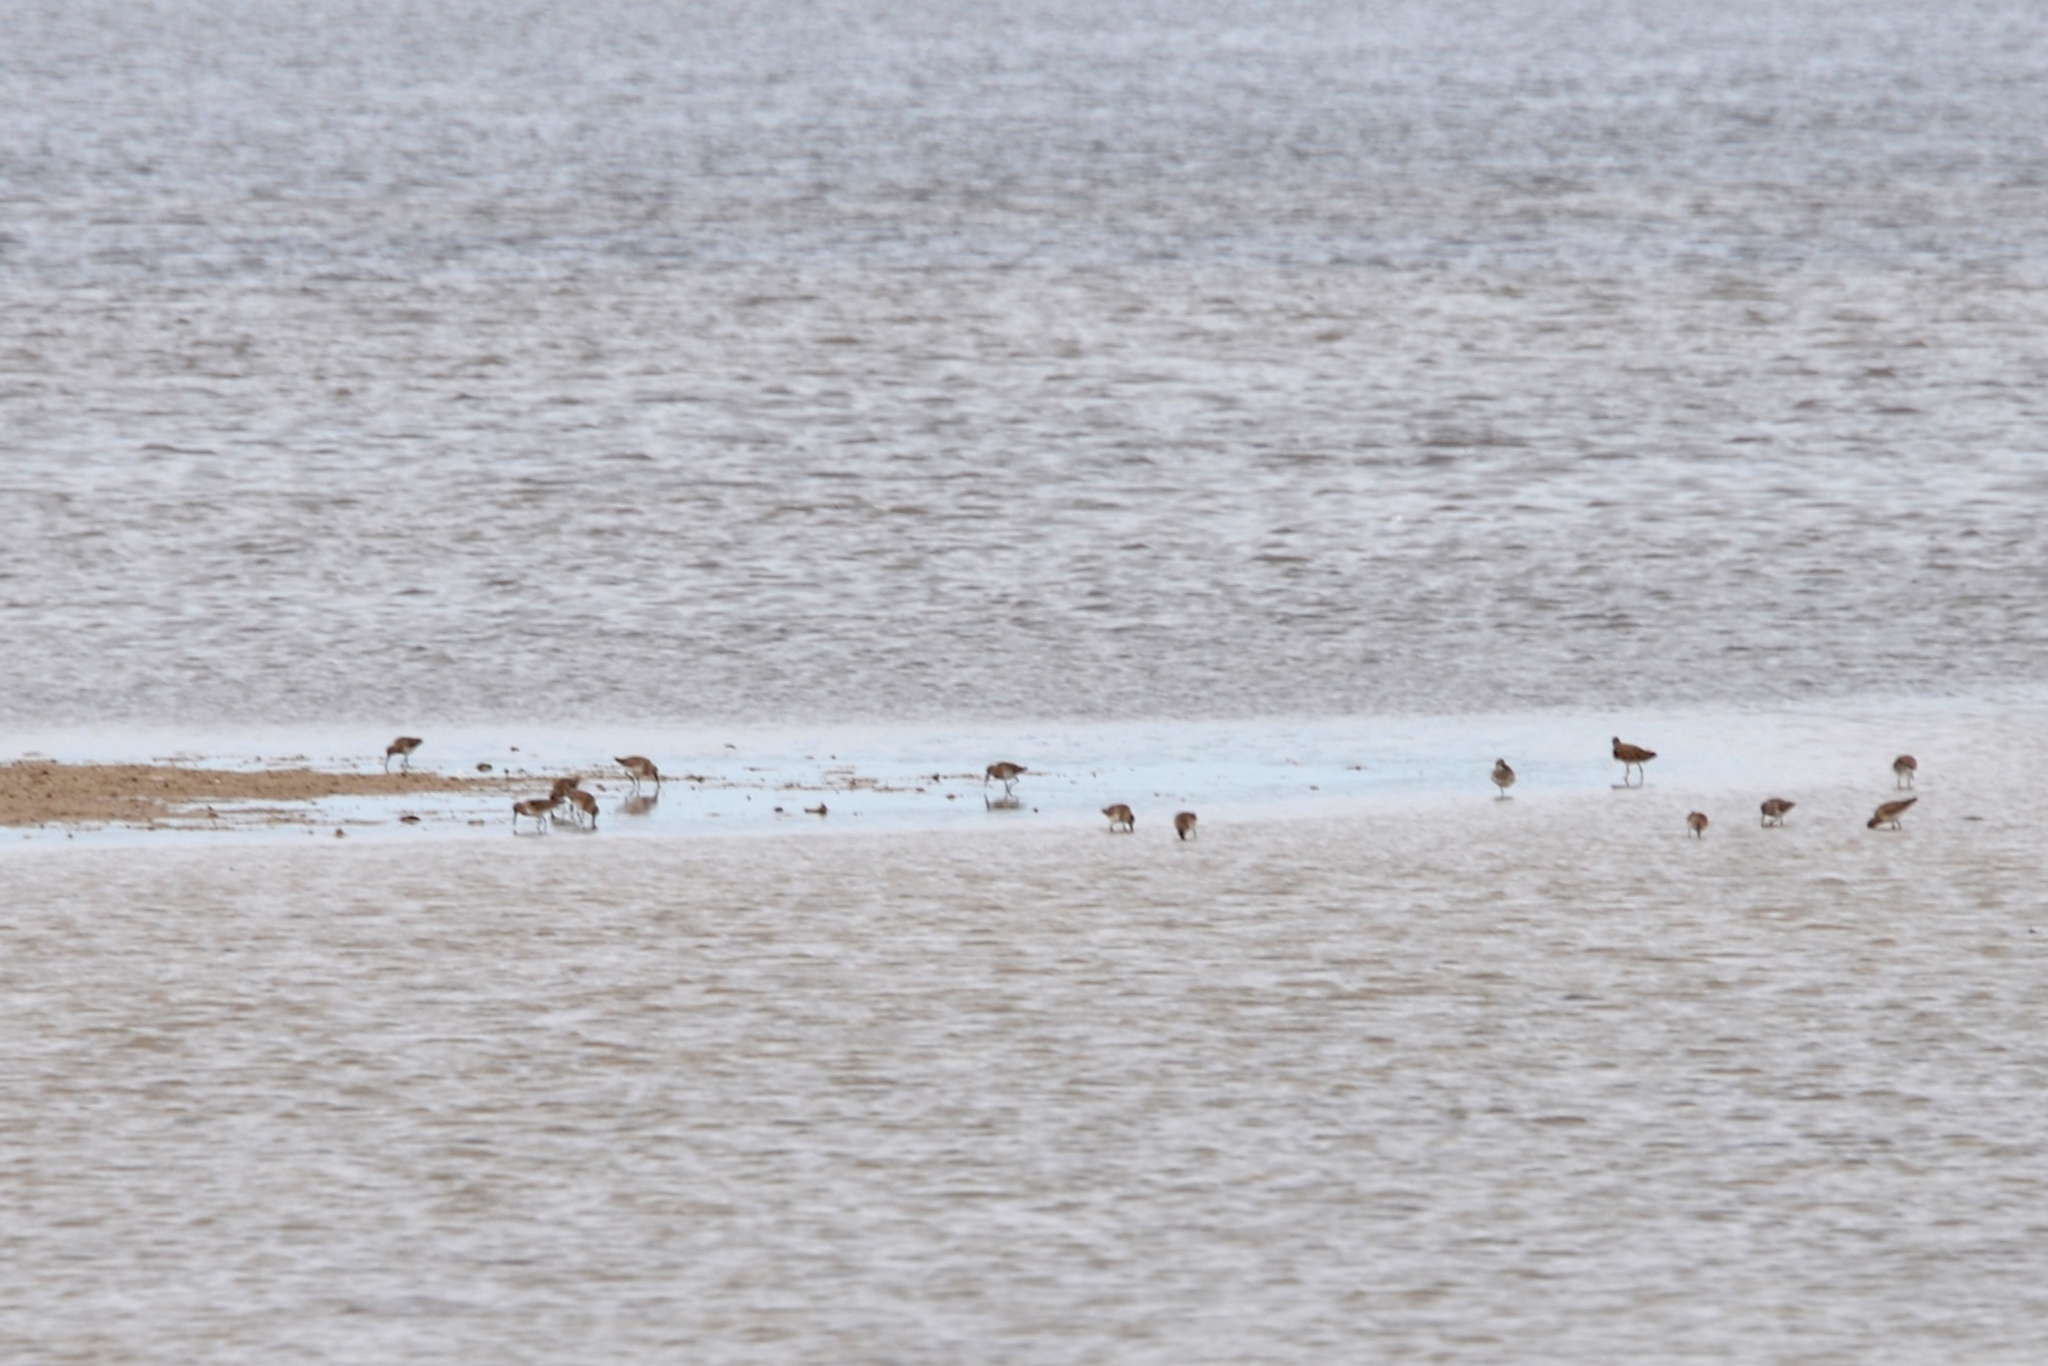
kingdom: Animalia
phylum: Chordata
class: Aves
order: Charadriiformes
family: Scolopacidae
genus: Calidris
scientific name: Calidris alpina
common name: Dunlin
